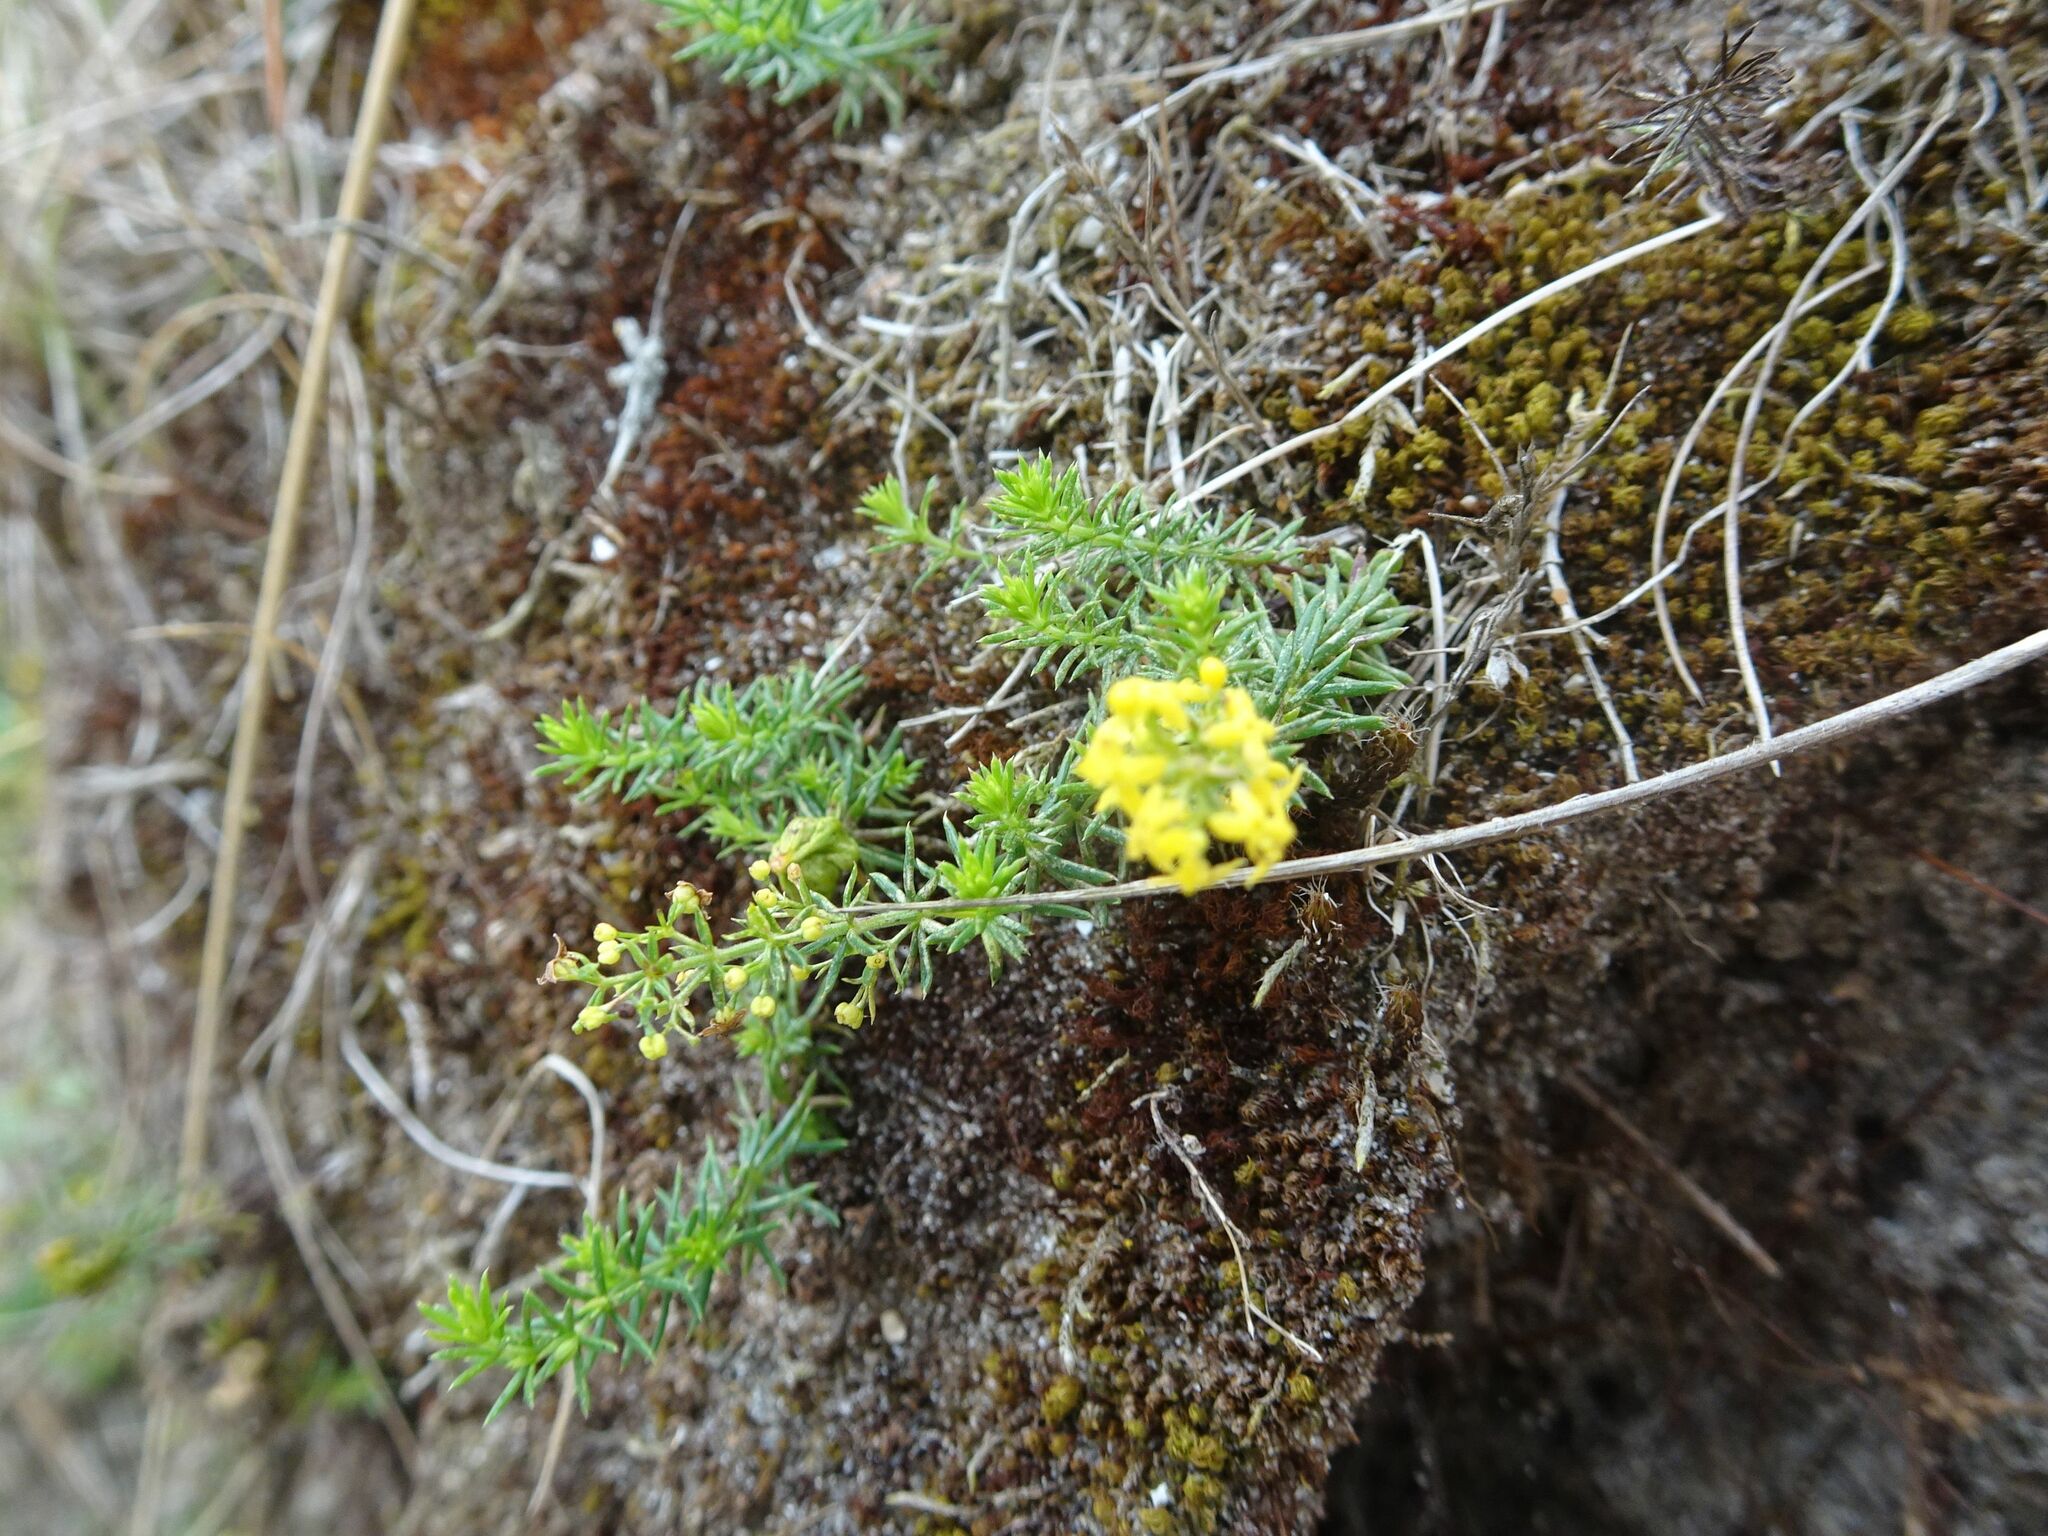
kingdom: Plantae
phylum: Tracheophyta
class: Magnoliopsida
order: Gentianales
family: Rubiaceae
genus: Galium
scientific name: Galium verum
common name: Lady's bedstraw
